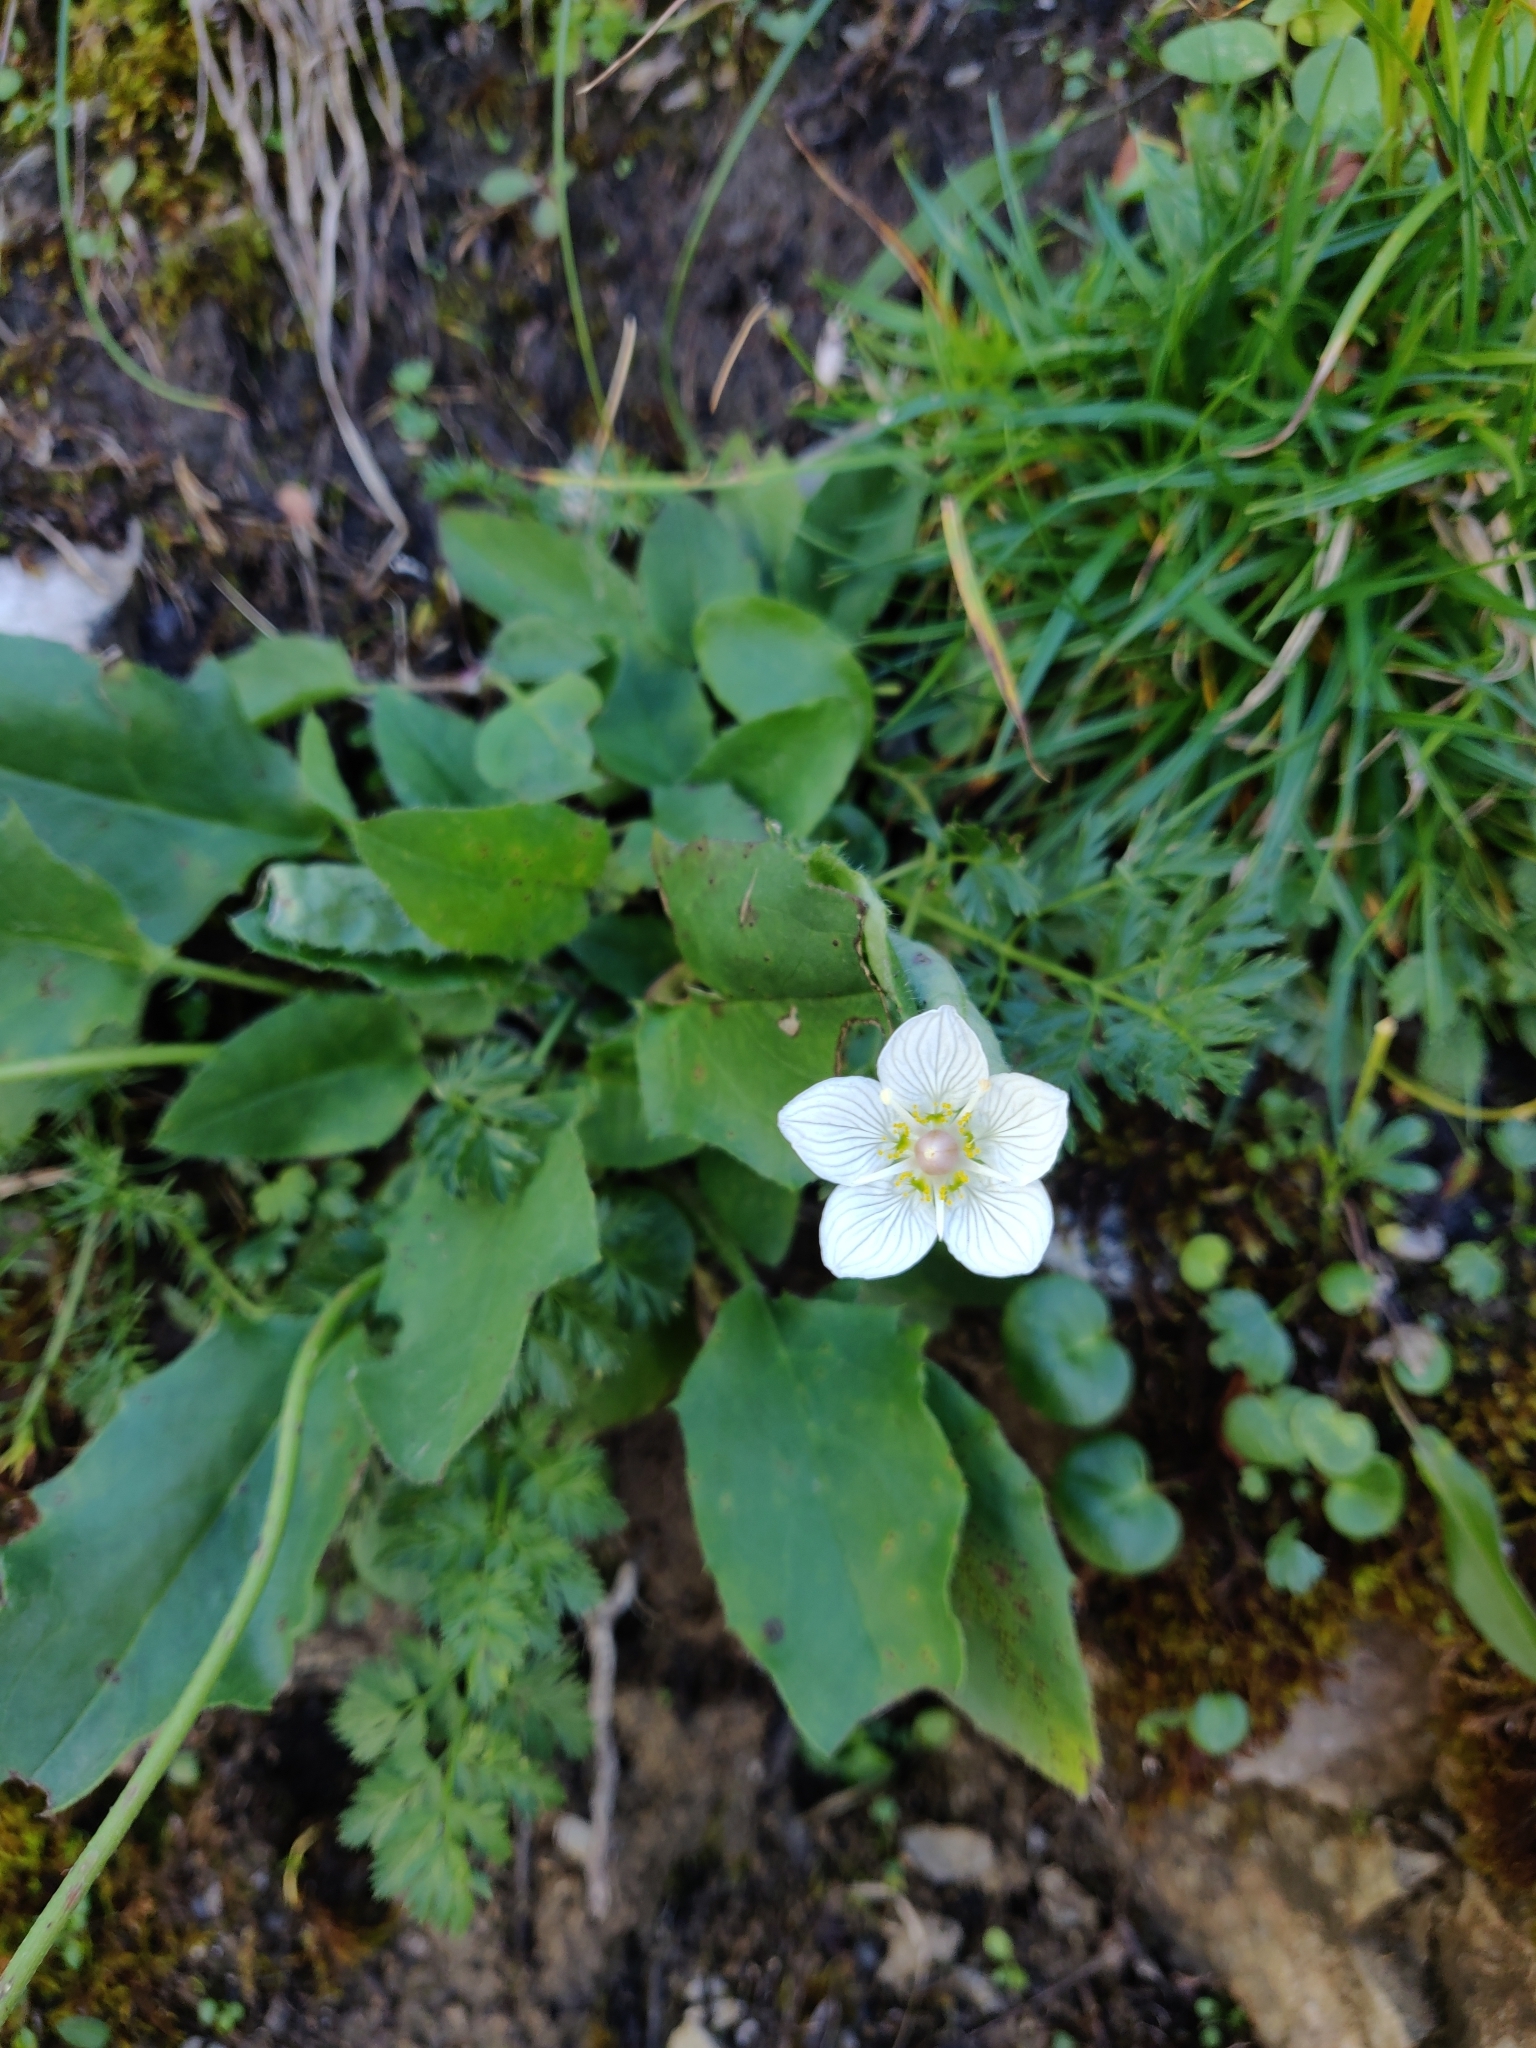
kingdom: Plantae
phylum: Tracheophyta
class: Magnoliopsida
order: Celastrales
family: Parnassiaceae
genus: Parnassia
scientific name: Parnassia palustris
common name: Grass-of-parnassus
